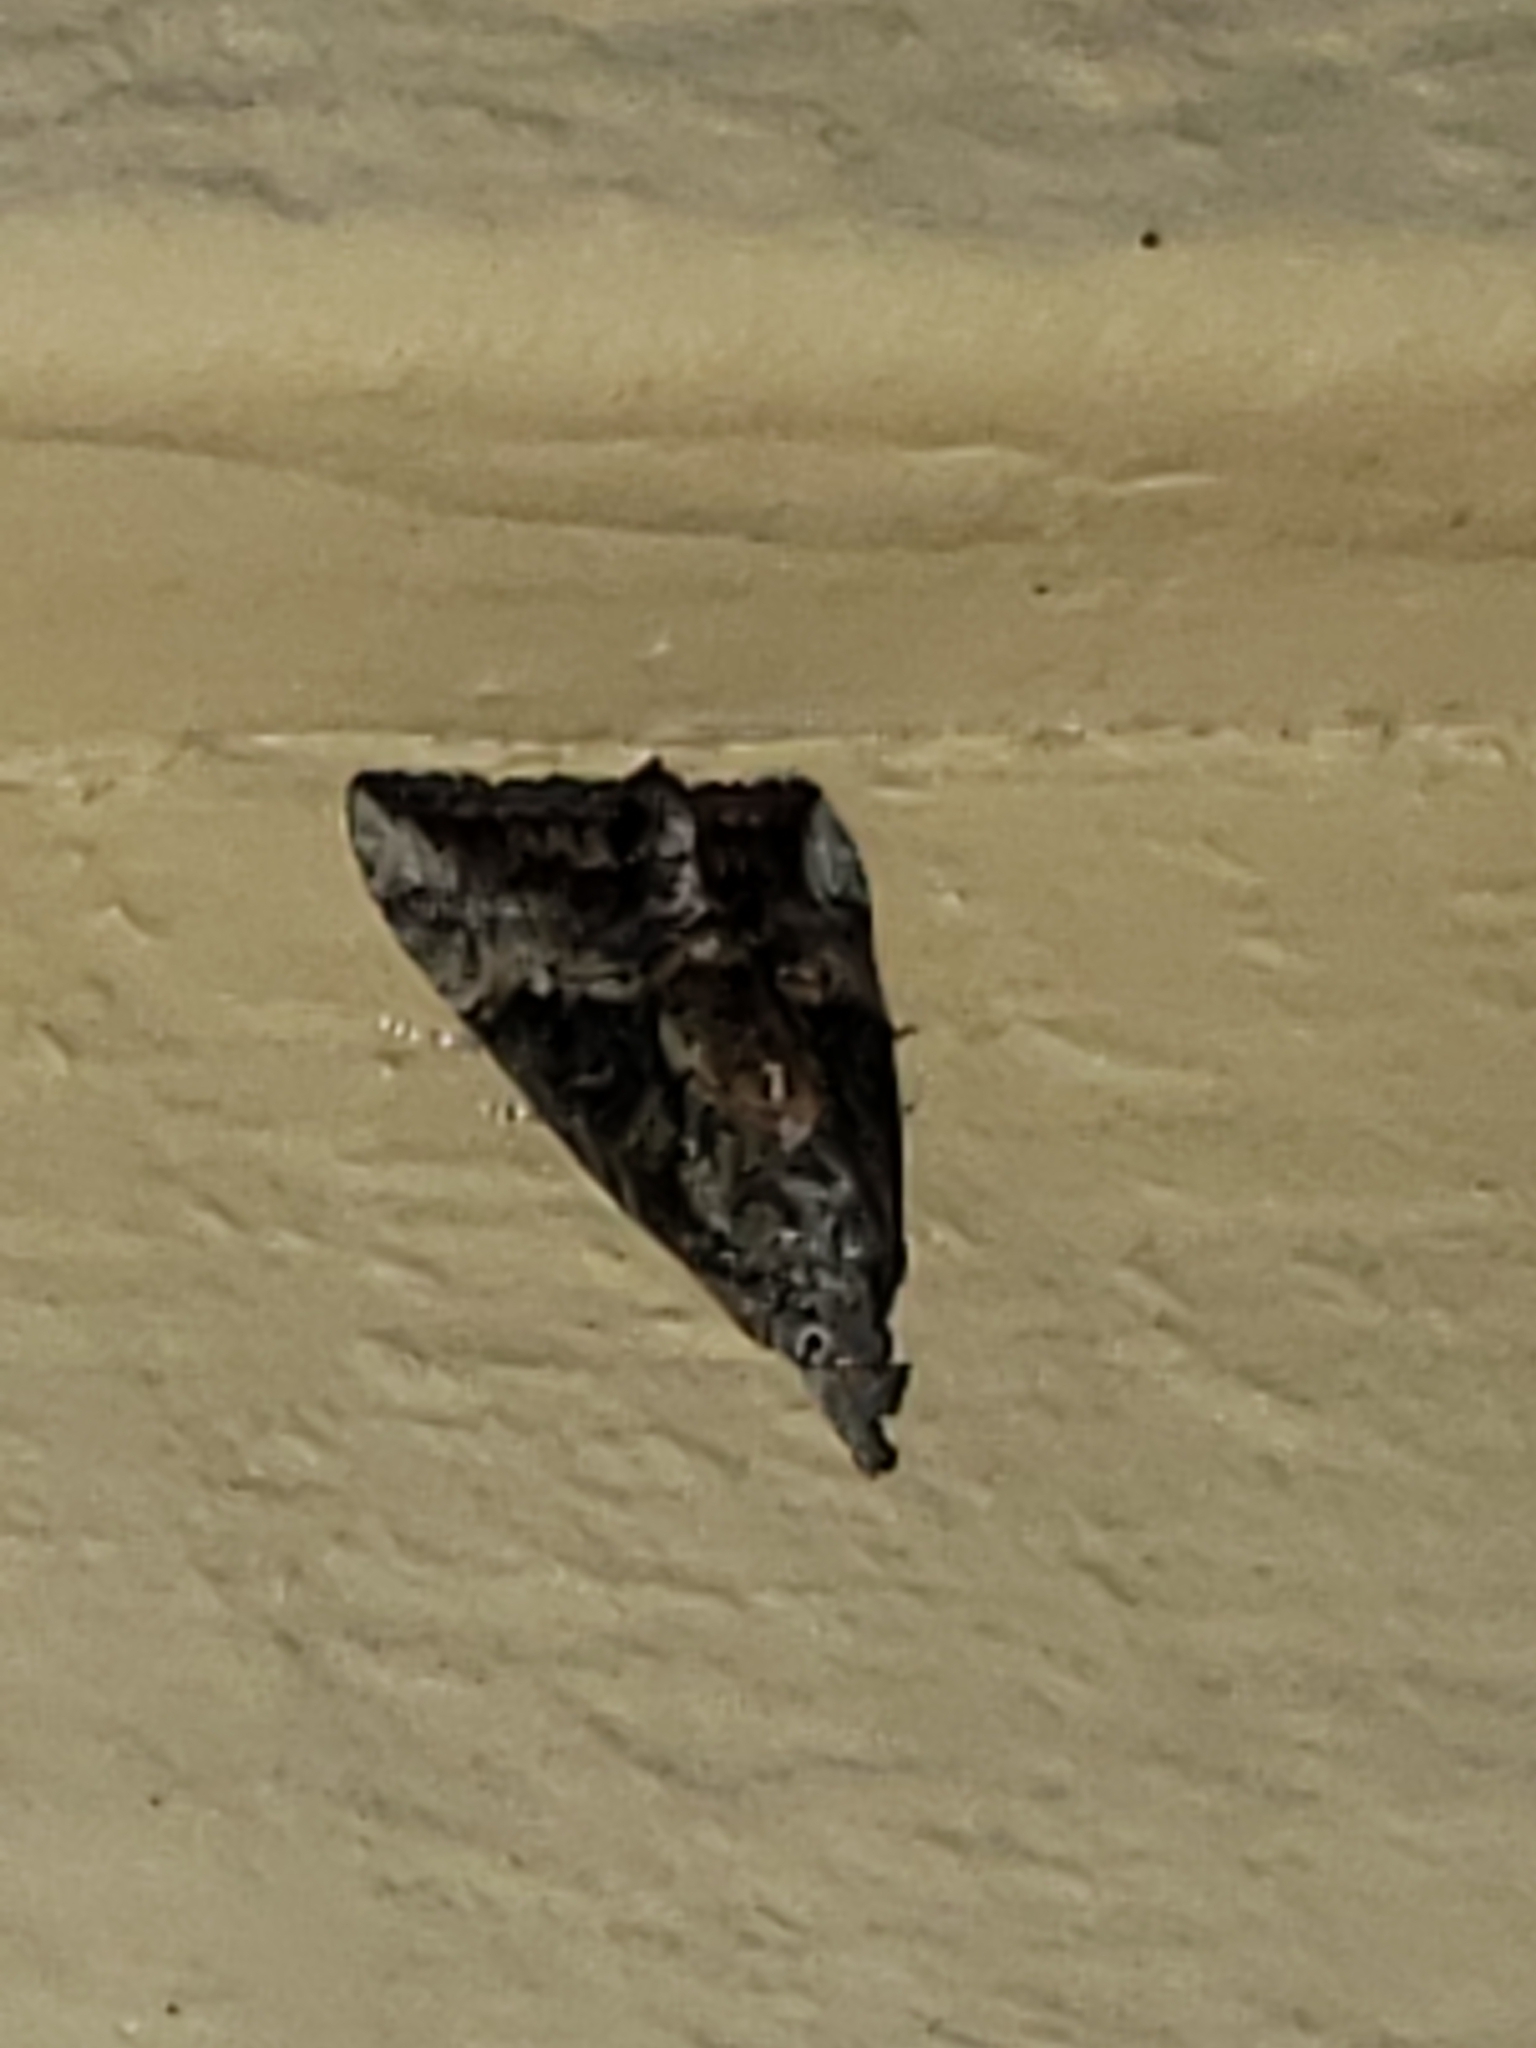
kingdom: Animalia
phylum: Arthropoda
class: Insecta
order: Lepidoptera
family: Erebidae
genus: Hypena
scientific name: Hypena scabra
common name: Green cloverworm
